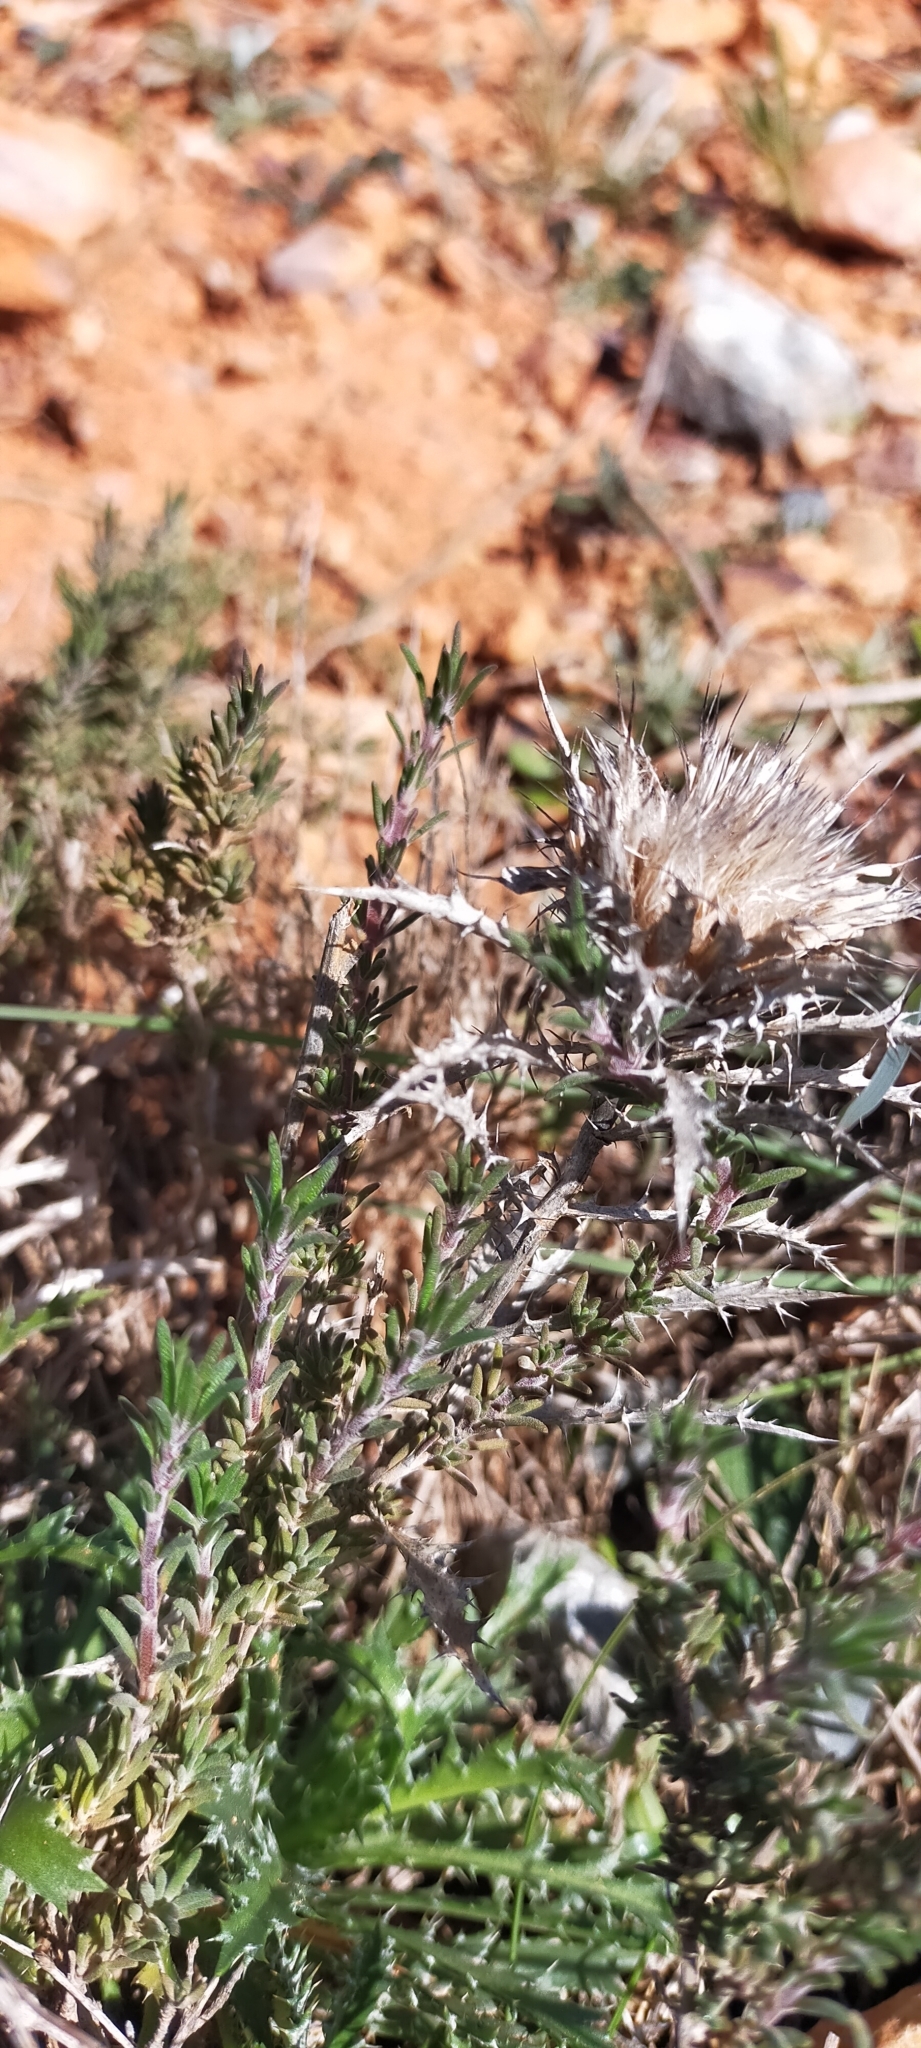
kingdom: Plantae
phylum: Tracheophyta
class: Magnoliopsida
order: Asterales
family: Asteraceae
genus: Atractylis
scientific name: Atractylis humilis
